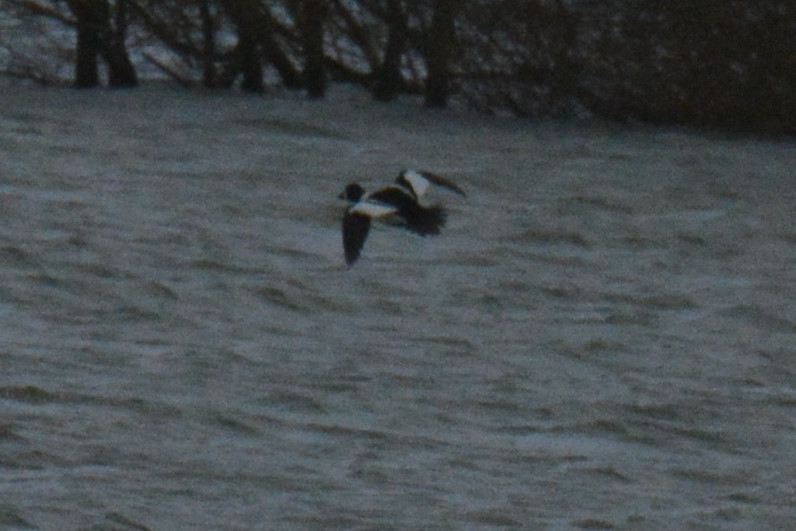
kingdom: Animalia
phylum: Chordata
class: Aves
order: Anseriformes
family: Anatidae
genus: Bucephala
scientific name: Bucephala clangula
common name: Common goldeneye
